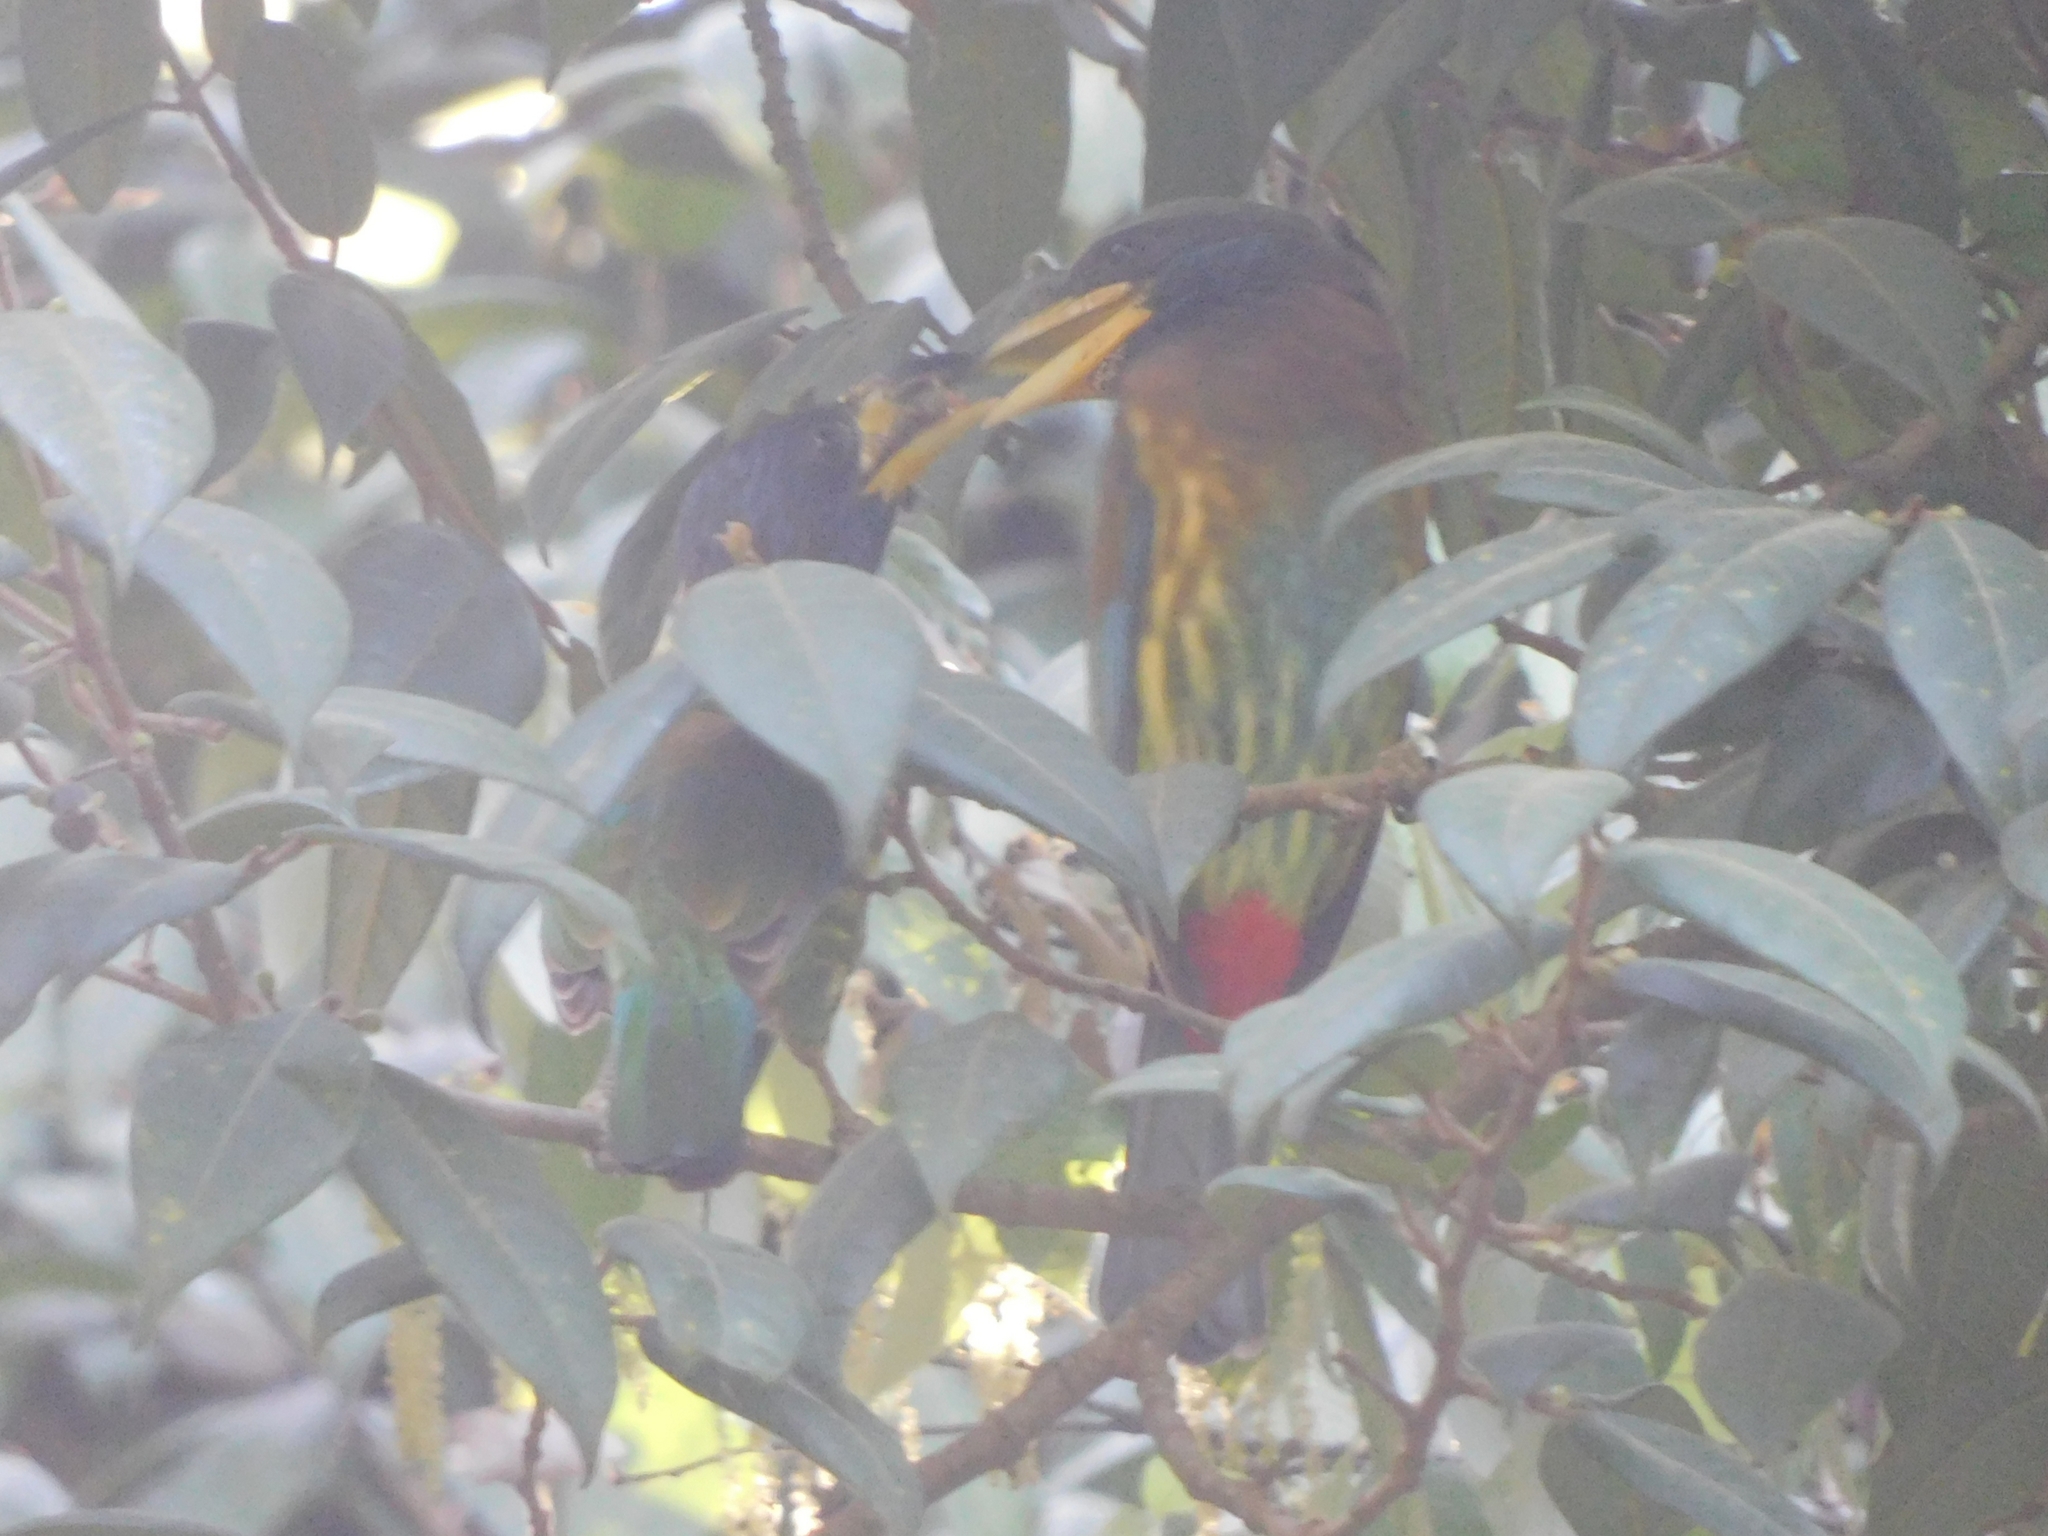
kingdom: Animalia
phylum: Chordata
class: Aves
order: Piciformes
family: Megalaimidae
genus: Psilopogon
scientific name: Psilopogon virens
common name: Great barbet
